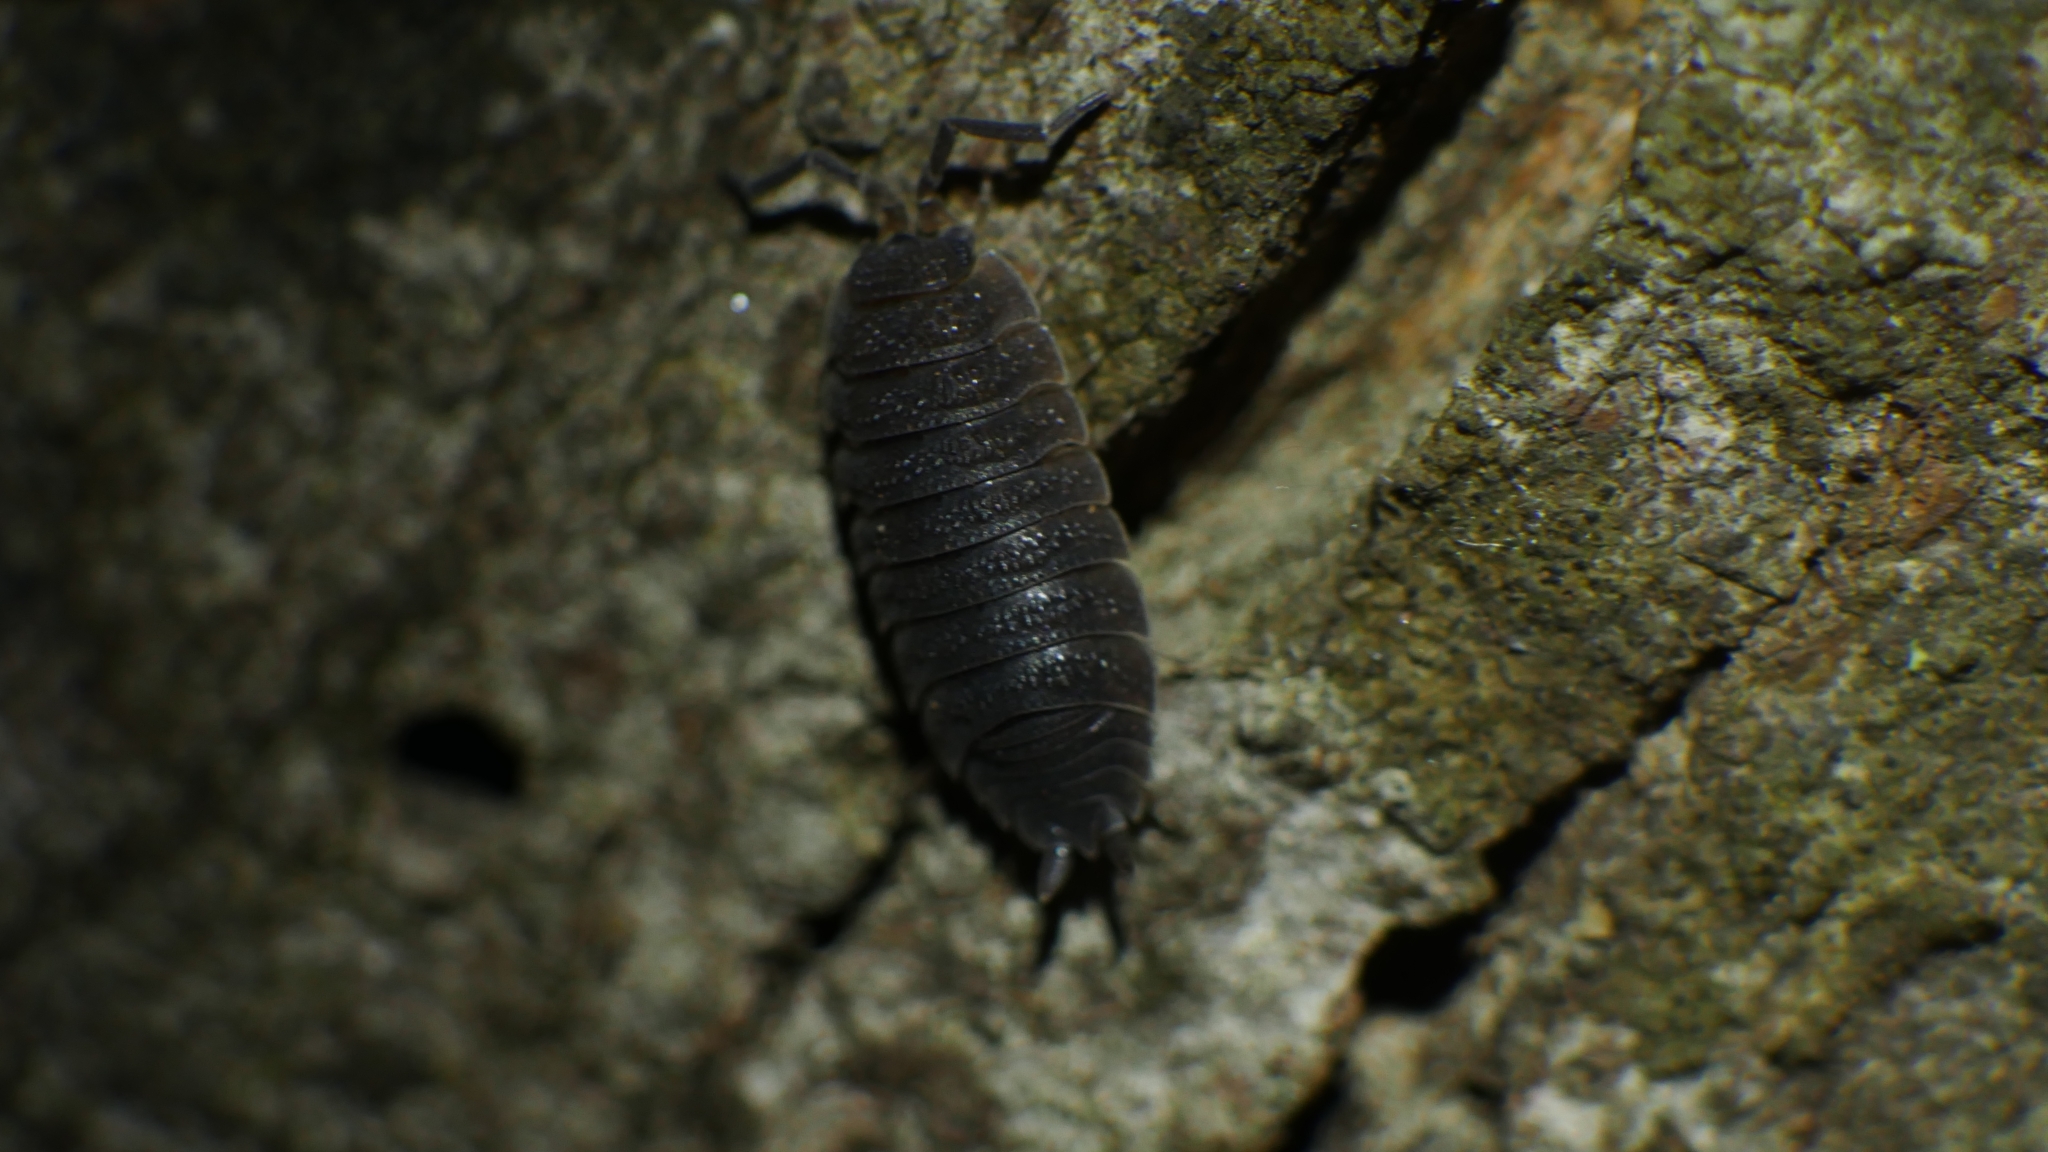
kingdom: Animalia
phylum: Arthropoda
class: Malacostraca
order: Isopoda
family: Porcellionidae
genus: Porcellio
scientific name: Porcellio scaber
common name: Common rough woodlouse
